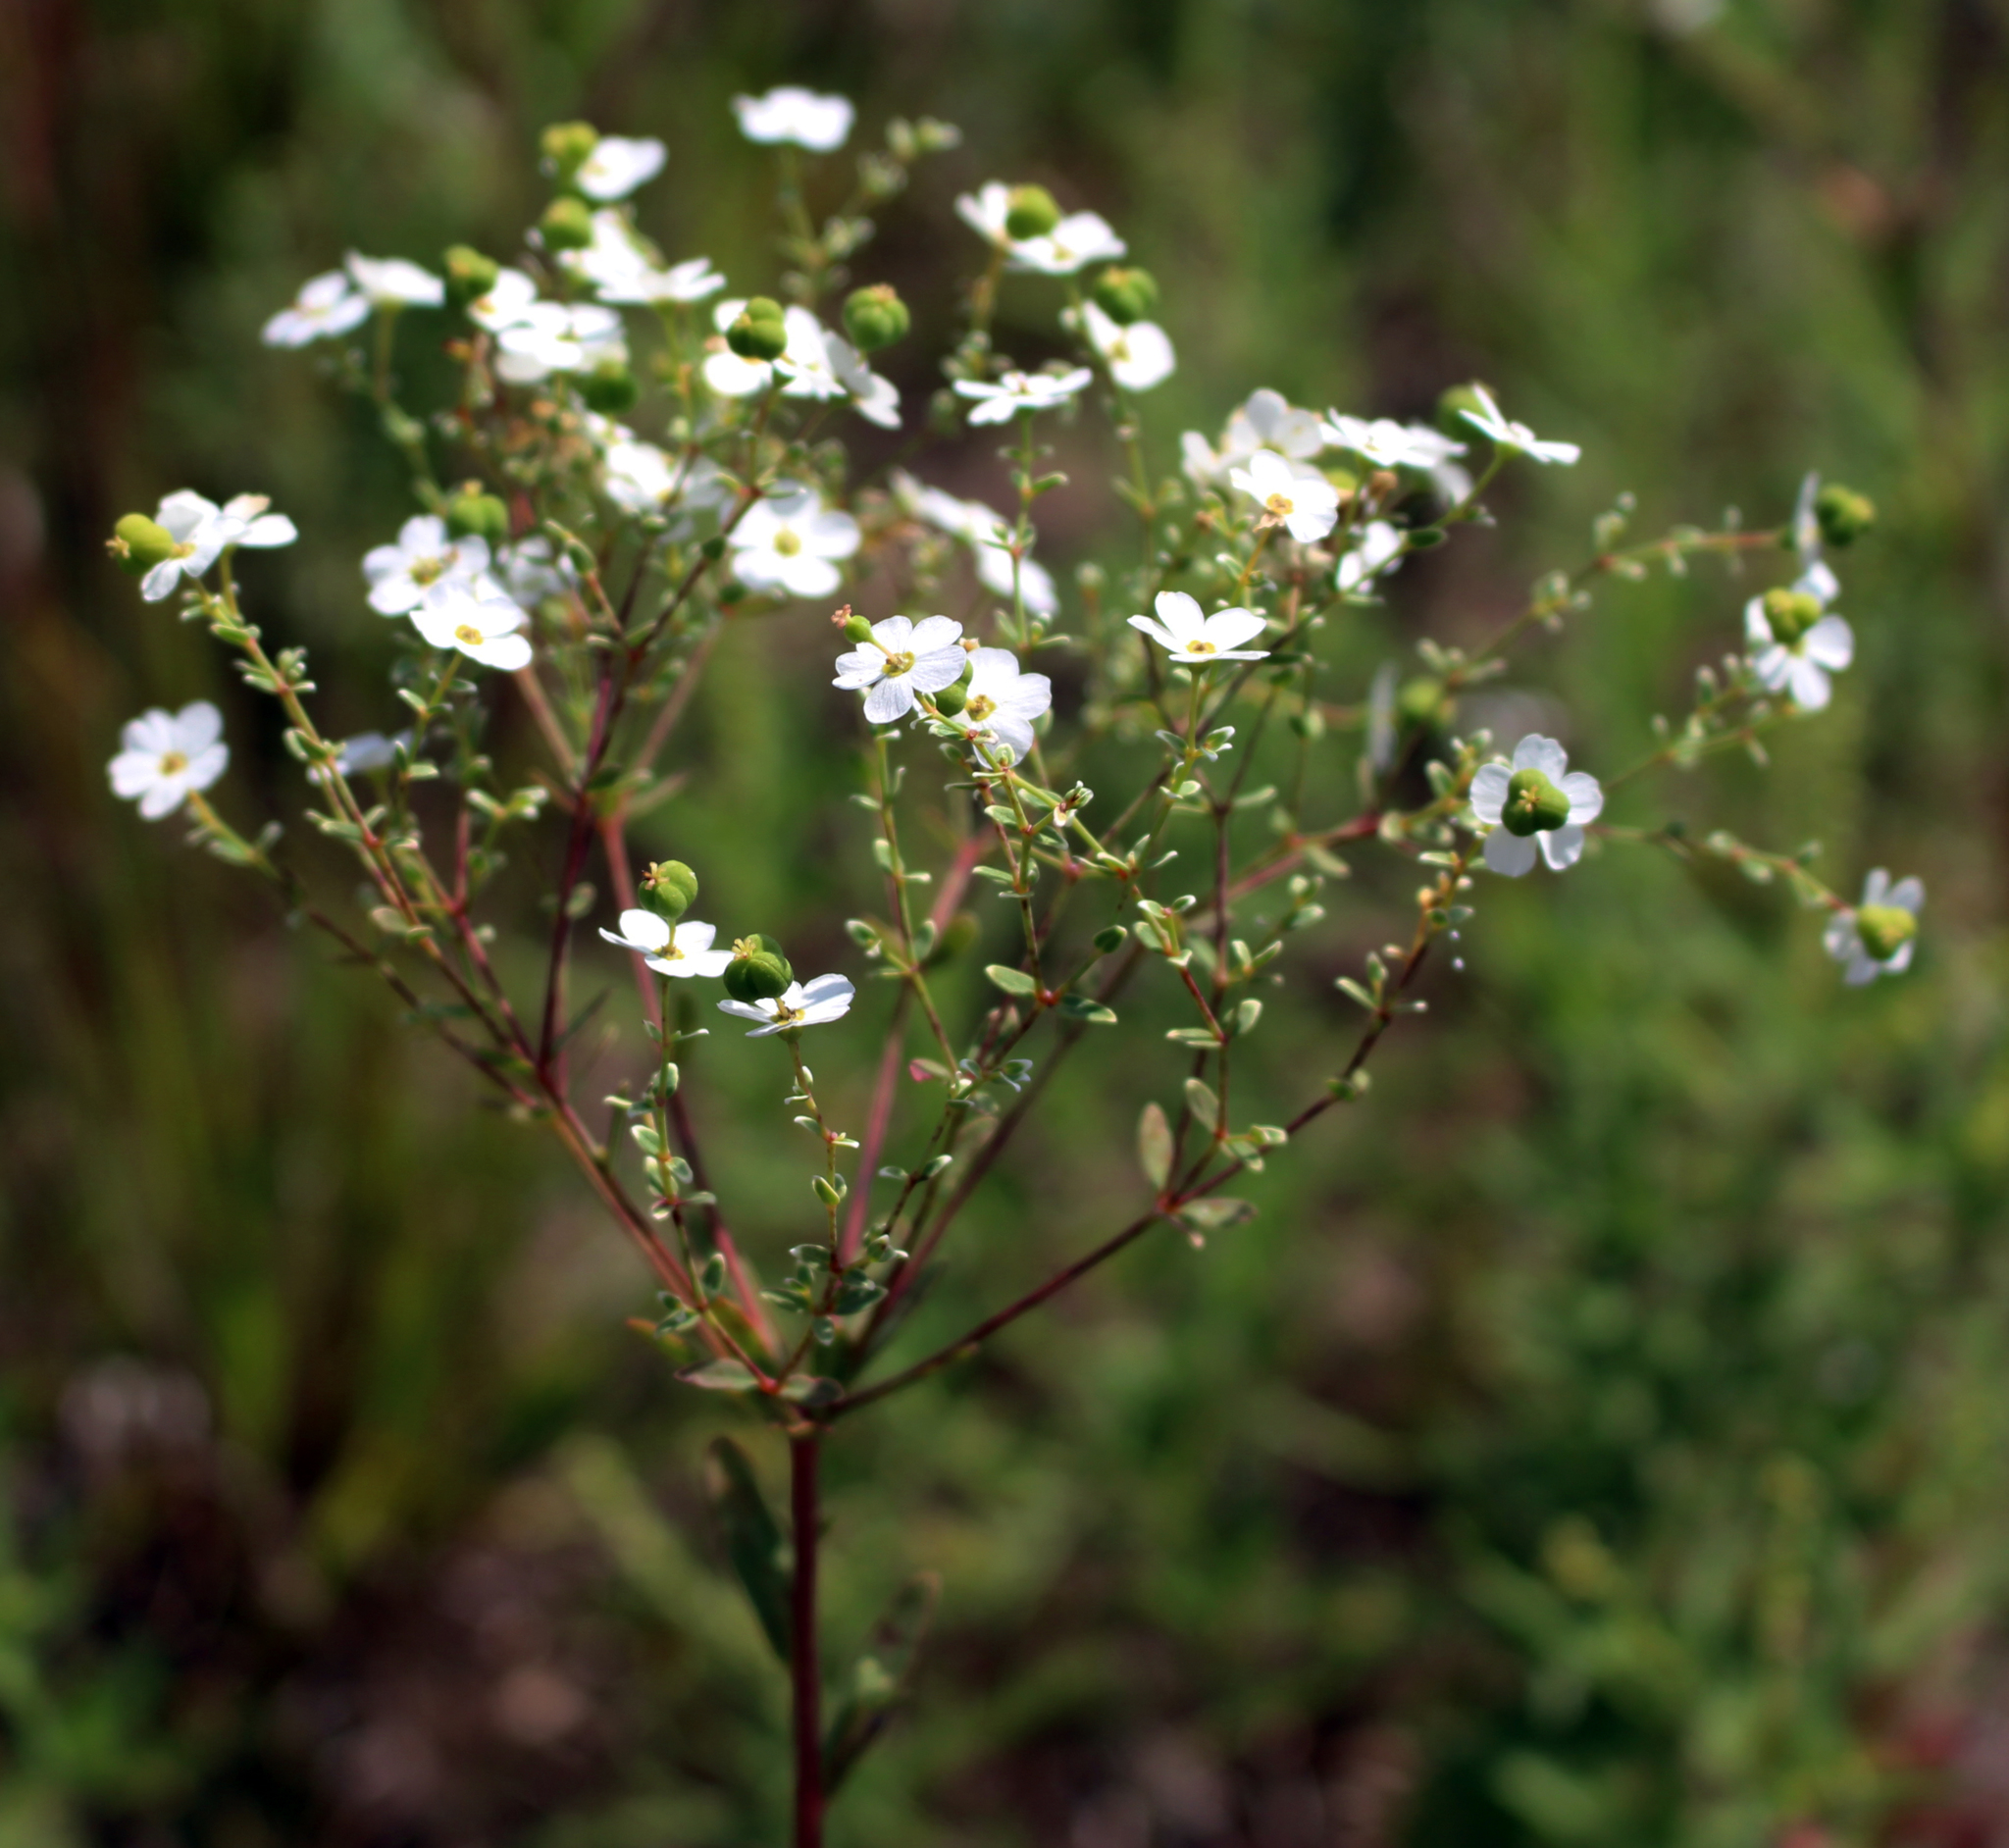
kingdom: Plantae
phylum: Tracheophyta
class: Magnoliopsida
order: Malpighiales
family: Euphorbiaceae
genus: Euphorbia
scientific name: Euphorbia corollata
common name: Flowering spurge
